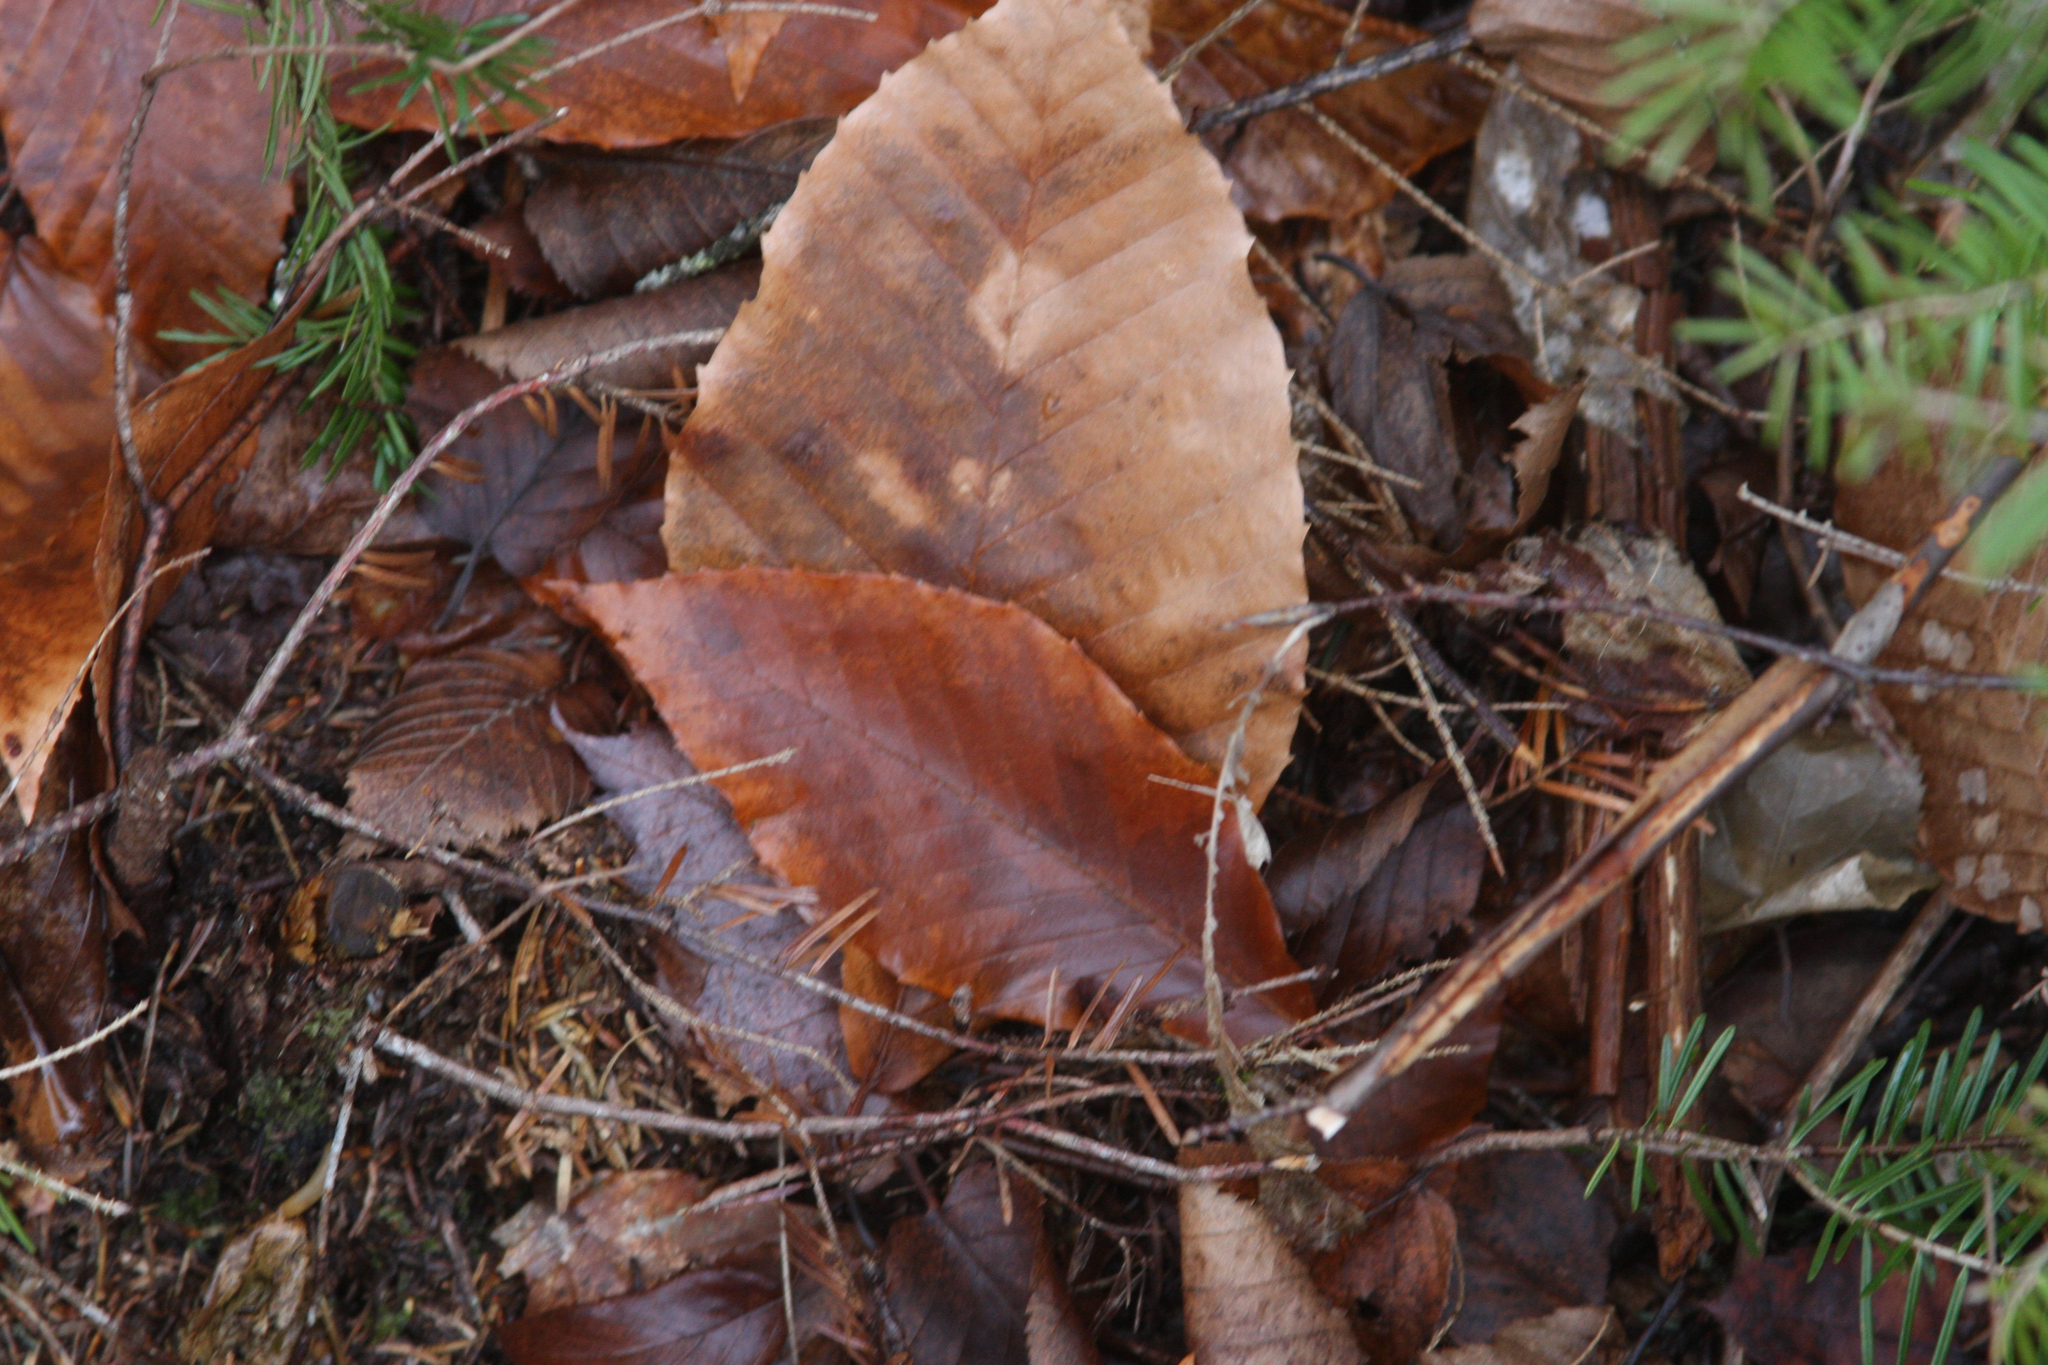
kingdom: Plantae
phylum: Tracheophyta
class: Magnoliopsida
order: Fagales
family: Fagaceae
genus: Fagus
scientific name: Fagus grandifolia
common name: American beech
